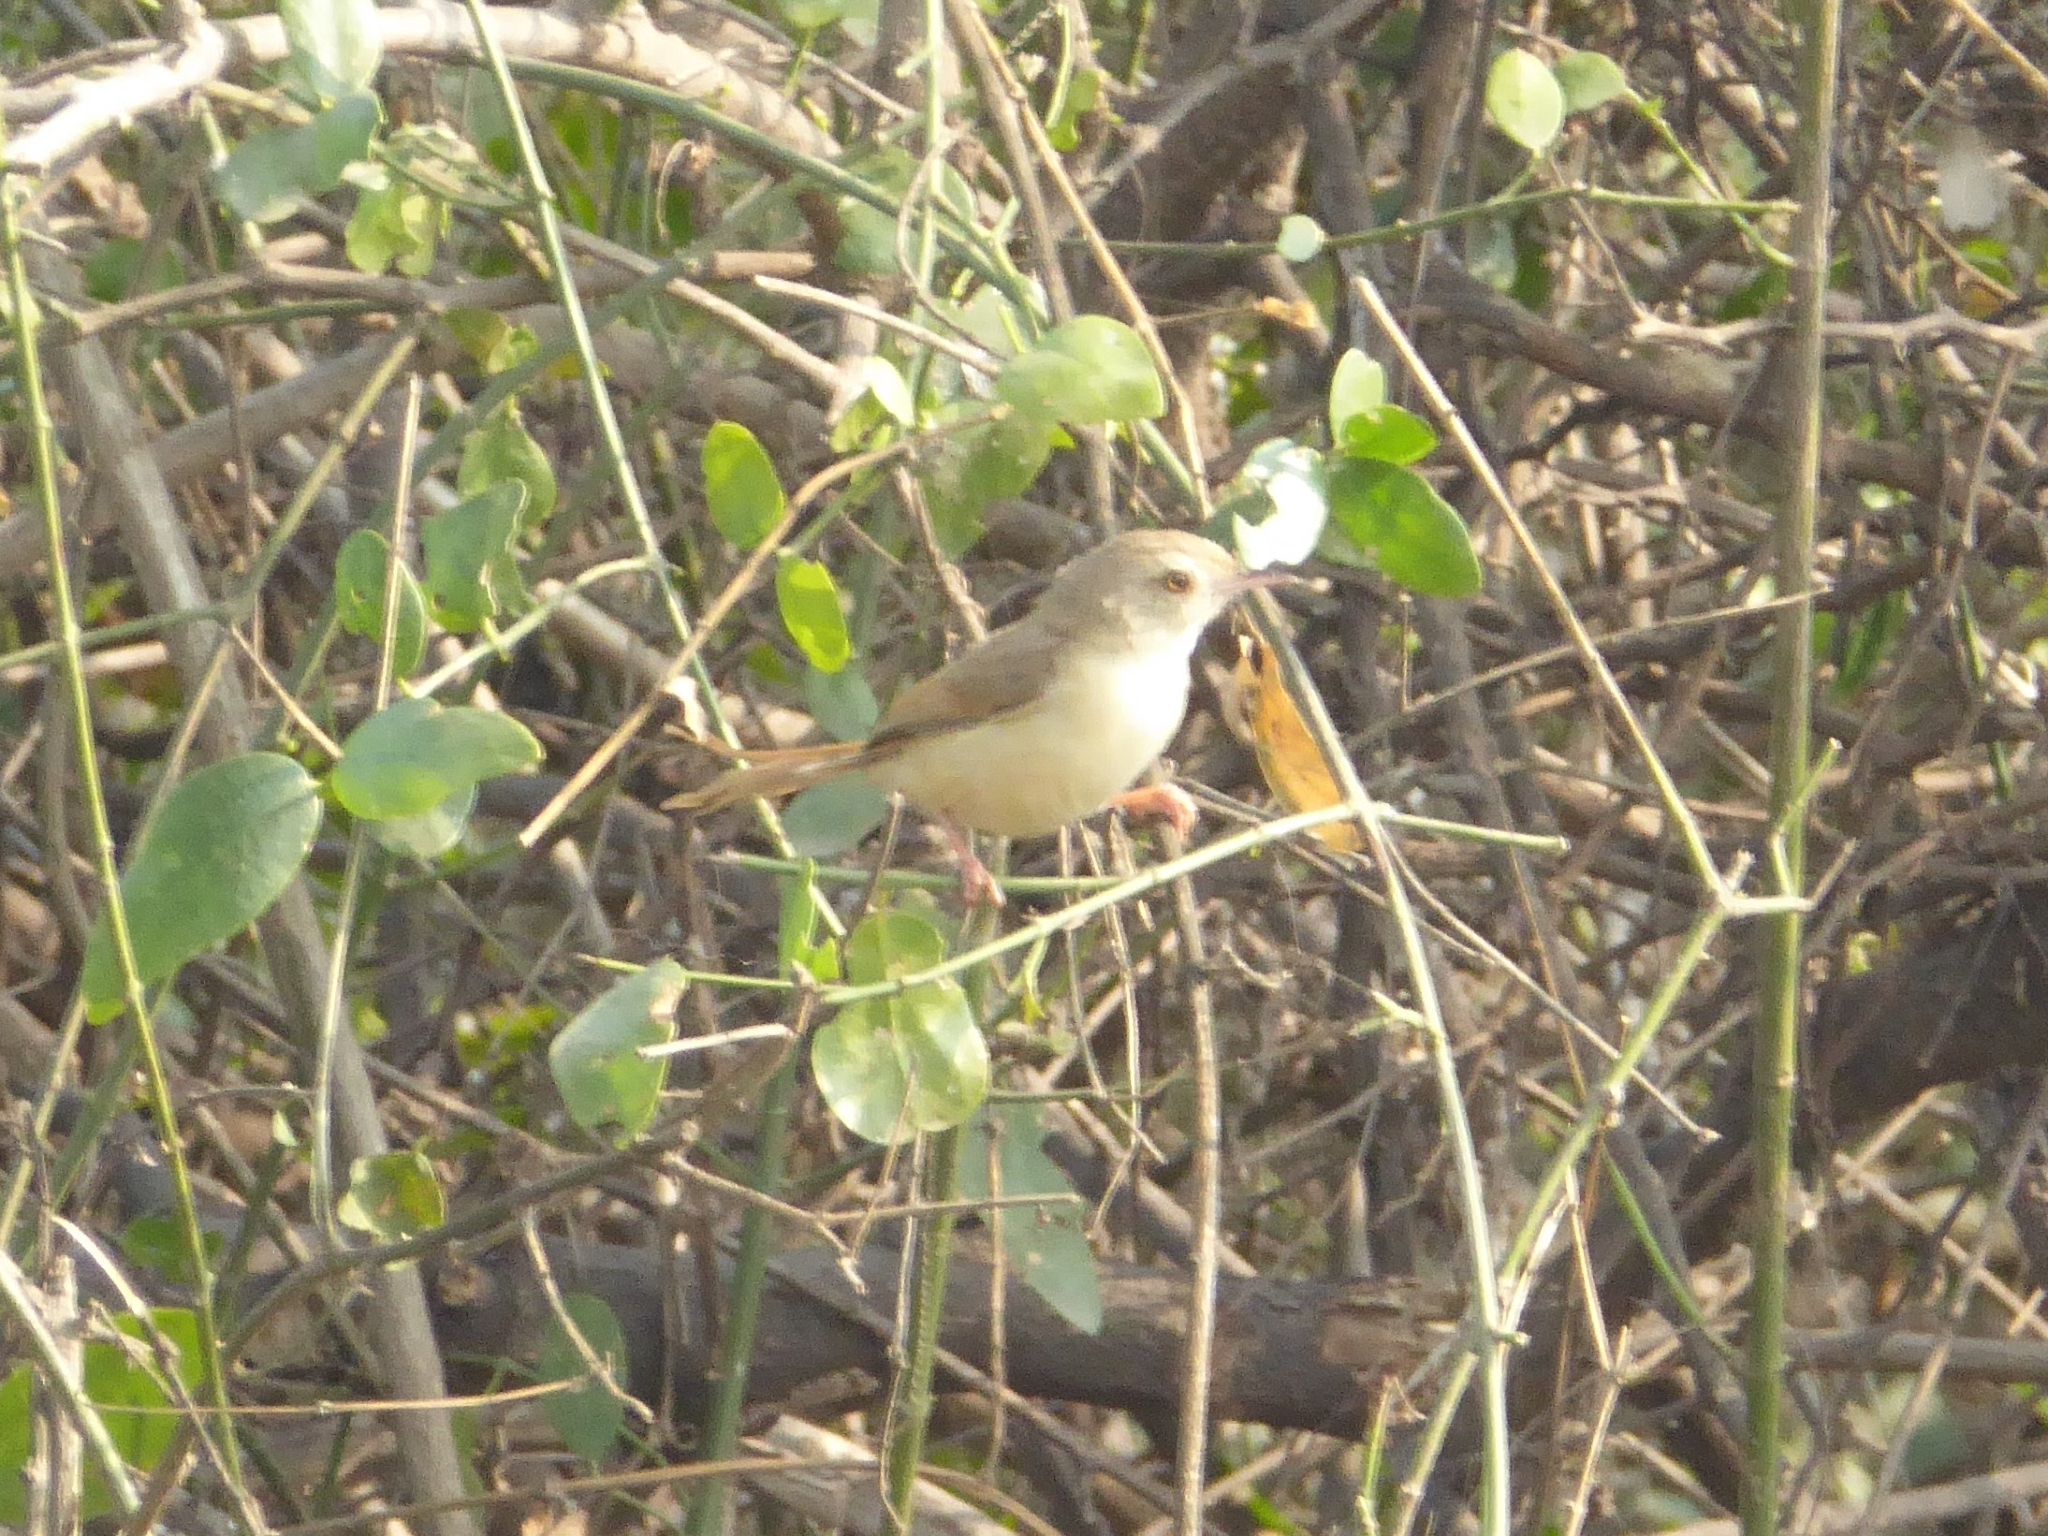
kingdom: Animalia
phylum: Chordata
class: Aves
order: Passeriformes
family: Cisticolidae
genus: Prinia
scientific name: Prinia inornata
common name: Plain prinia
